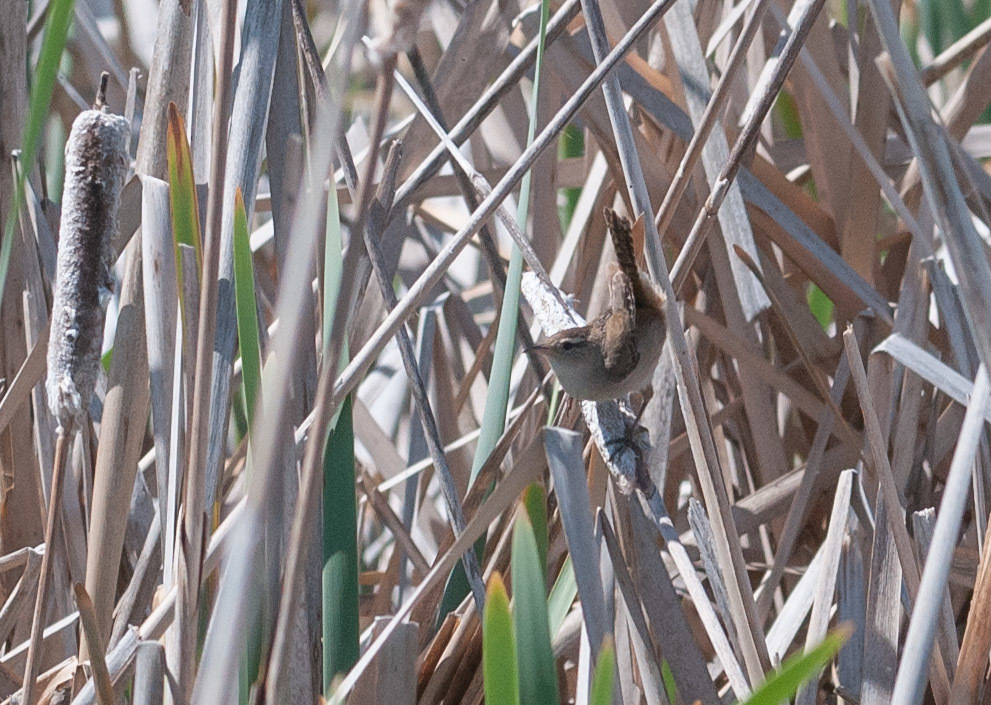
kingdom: Animalia
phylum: Chordata
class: Aves
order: Passeriformes
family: Troglodytidae
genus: Cistothorus
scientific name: Cistothorus palustris
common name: Marsh wren
